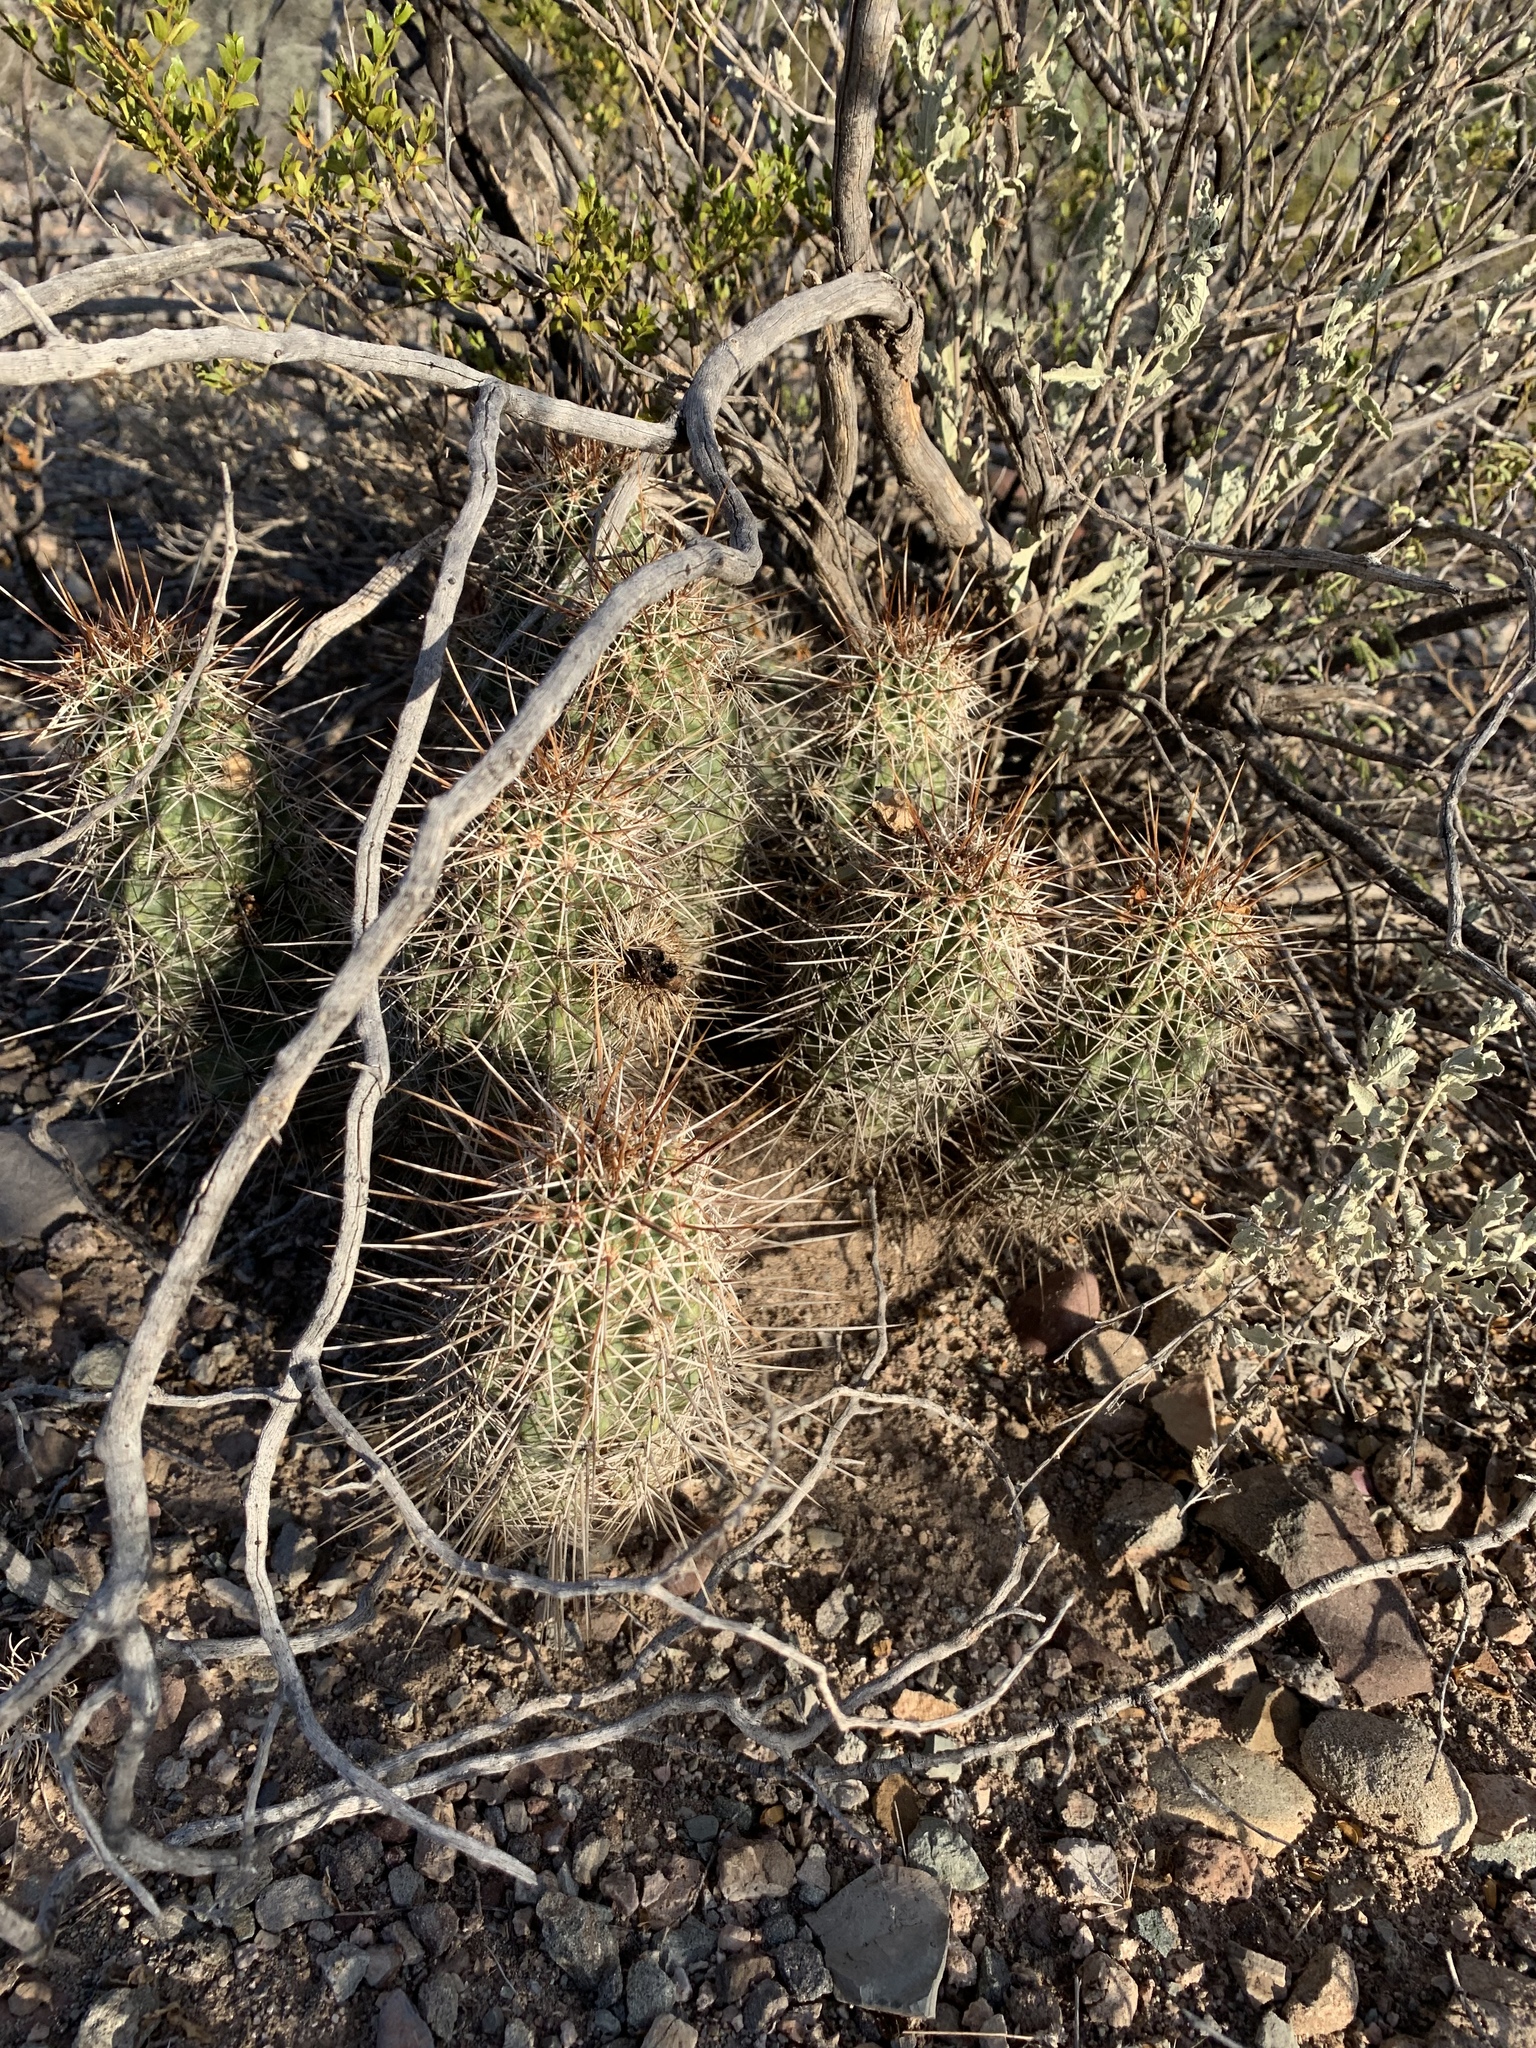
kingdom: Plantae
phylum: Tracheophyta
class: Magnoliopsida
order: Caryophyllales
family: Cactaceae
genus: Echinocereus
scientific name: Echinocereus fasciculatus
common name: Bundle hedgehog
